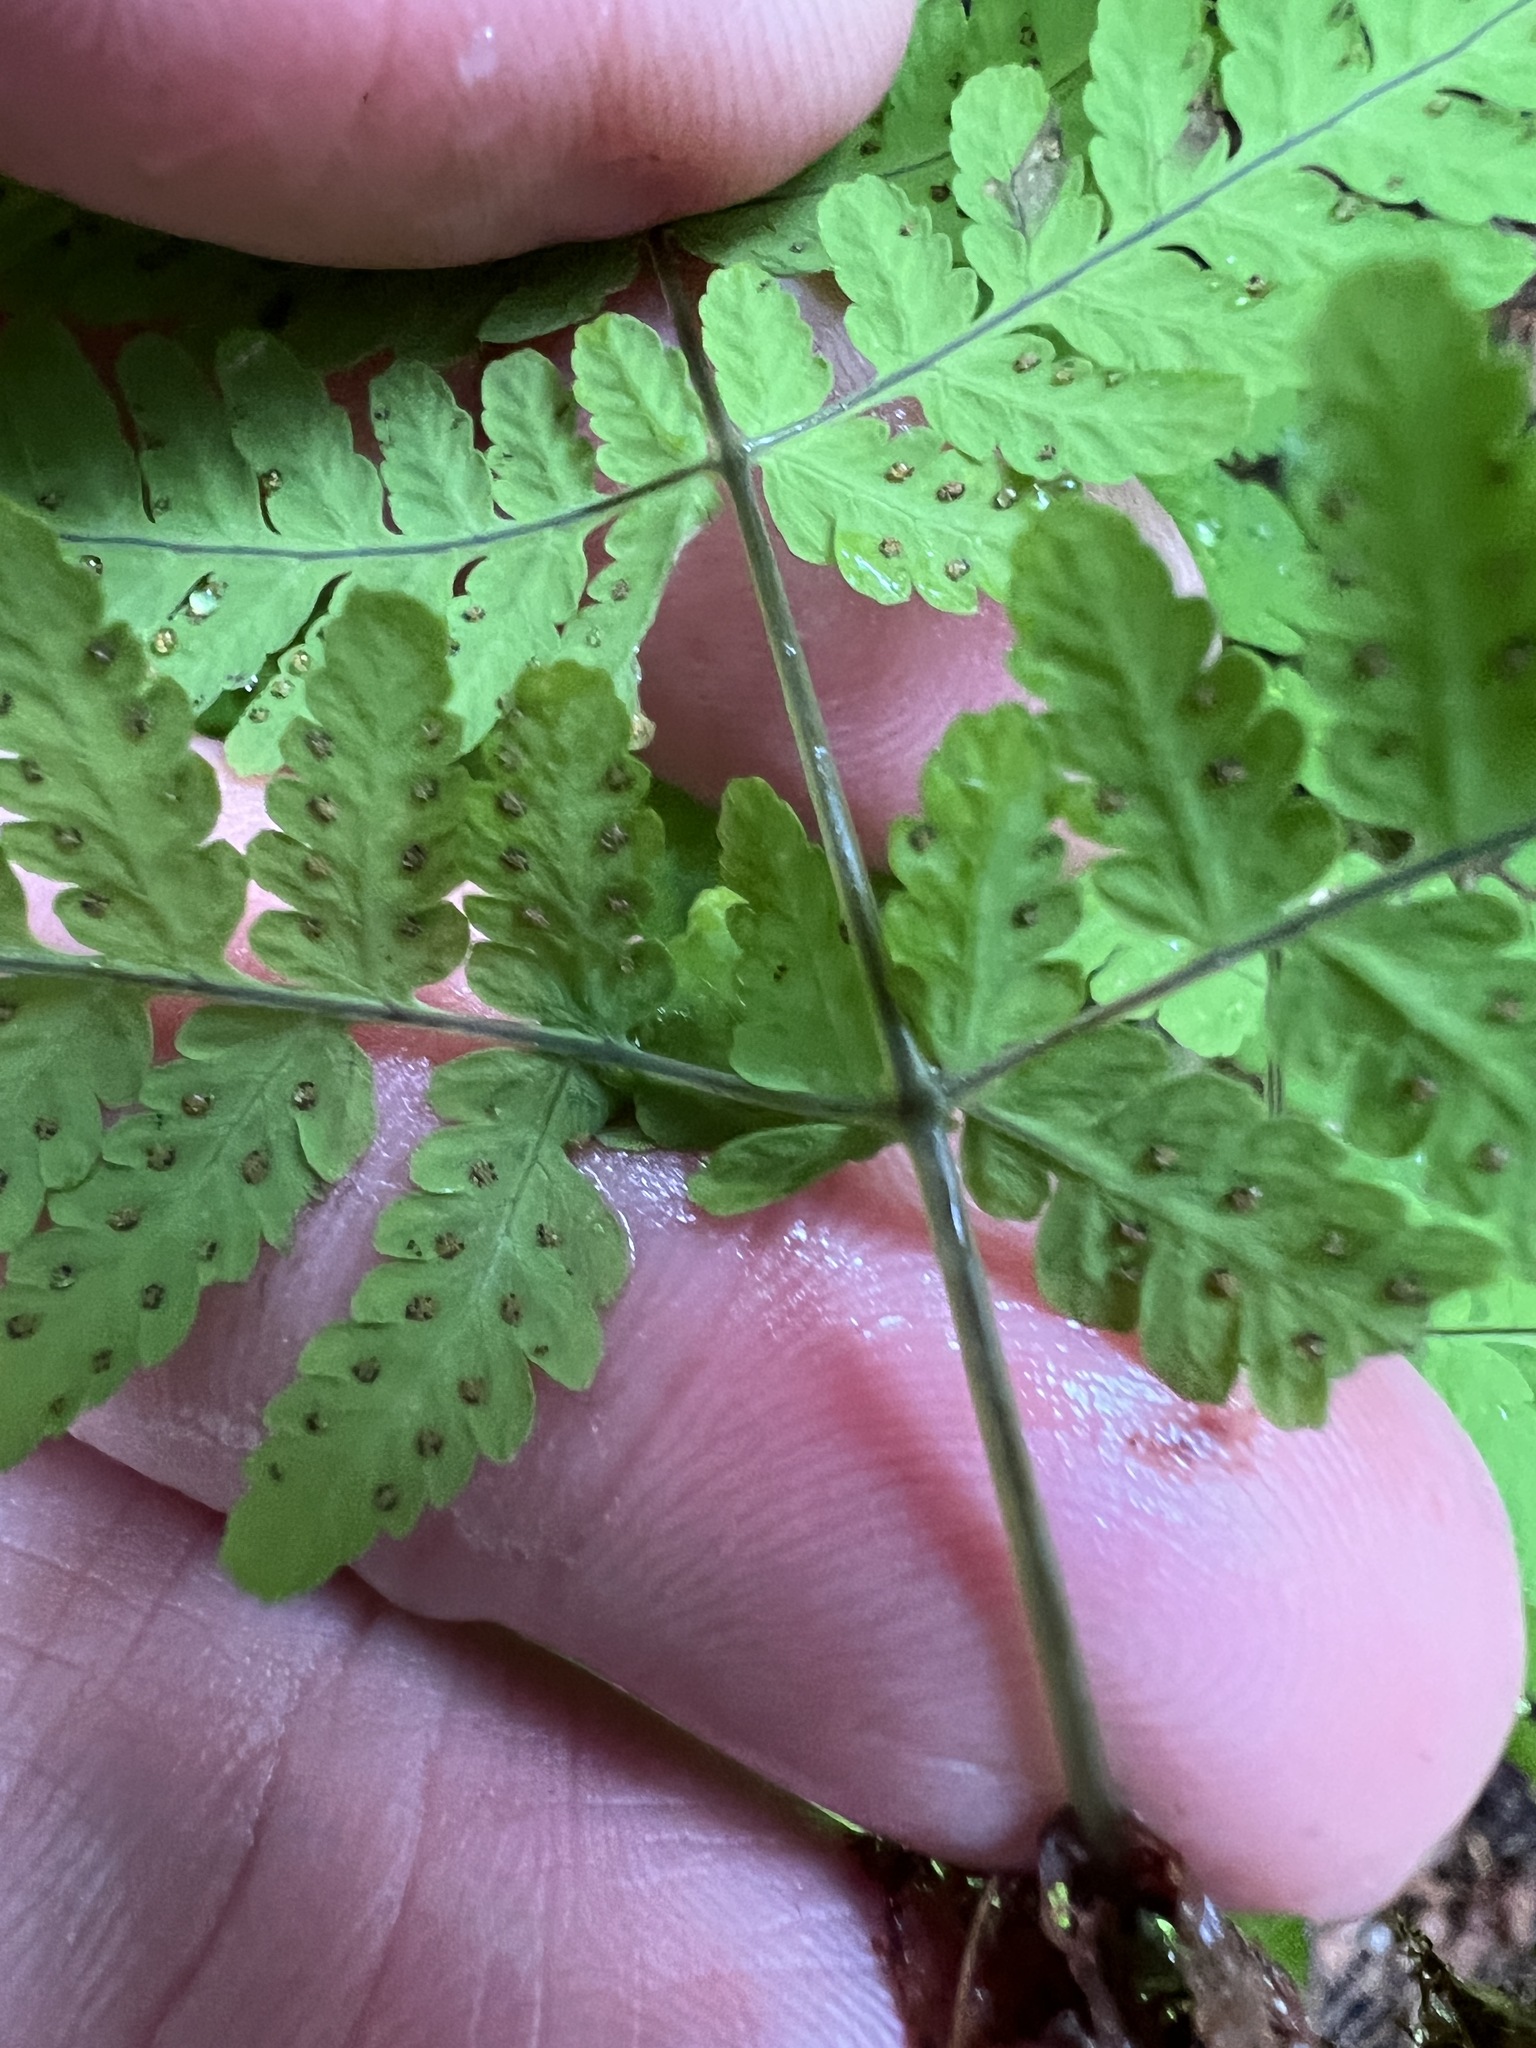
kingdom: Plantae
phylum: Tracheophyta
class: Polypodiopsida
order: Polypodiales
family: Cystopteridaceae
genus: Gymnocarpium
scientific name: Gymnocarpium disjunctum
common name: Western oak fern
